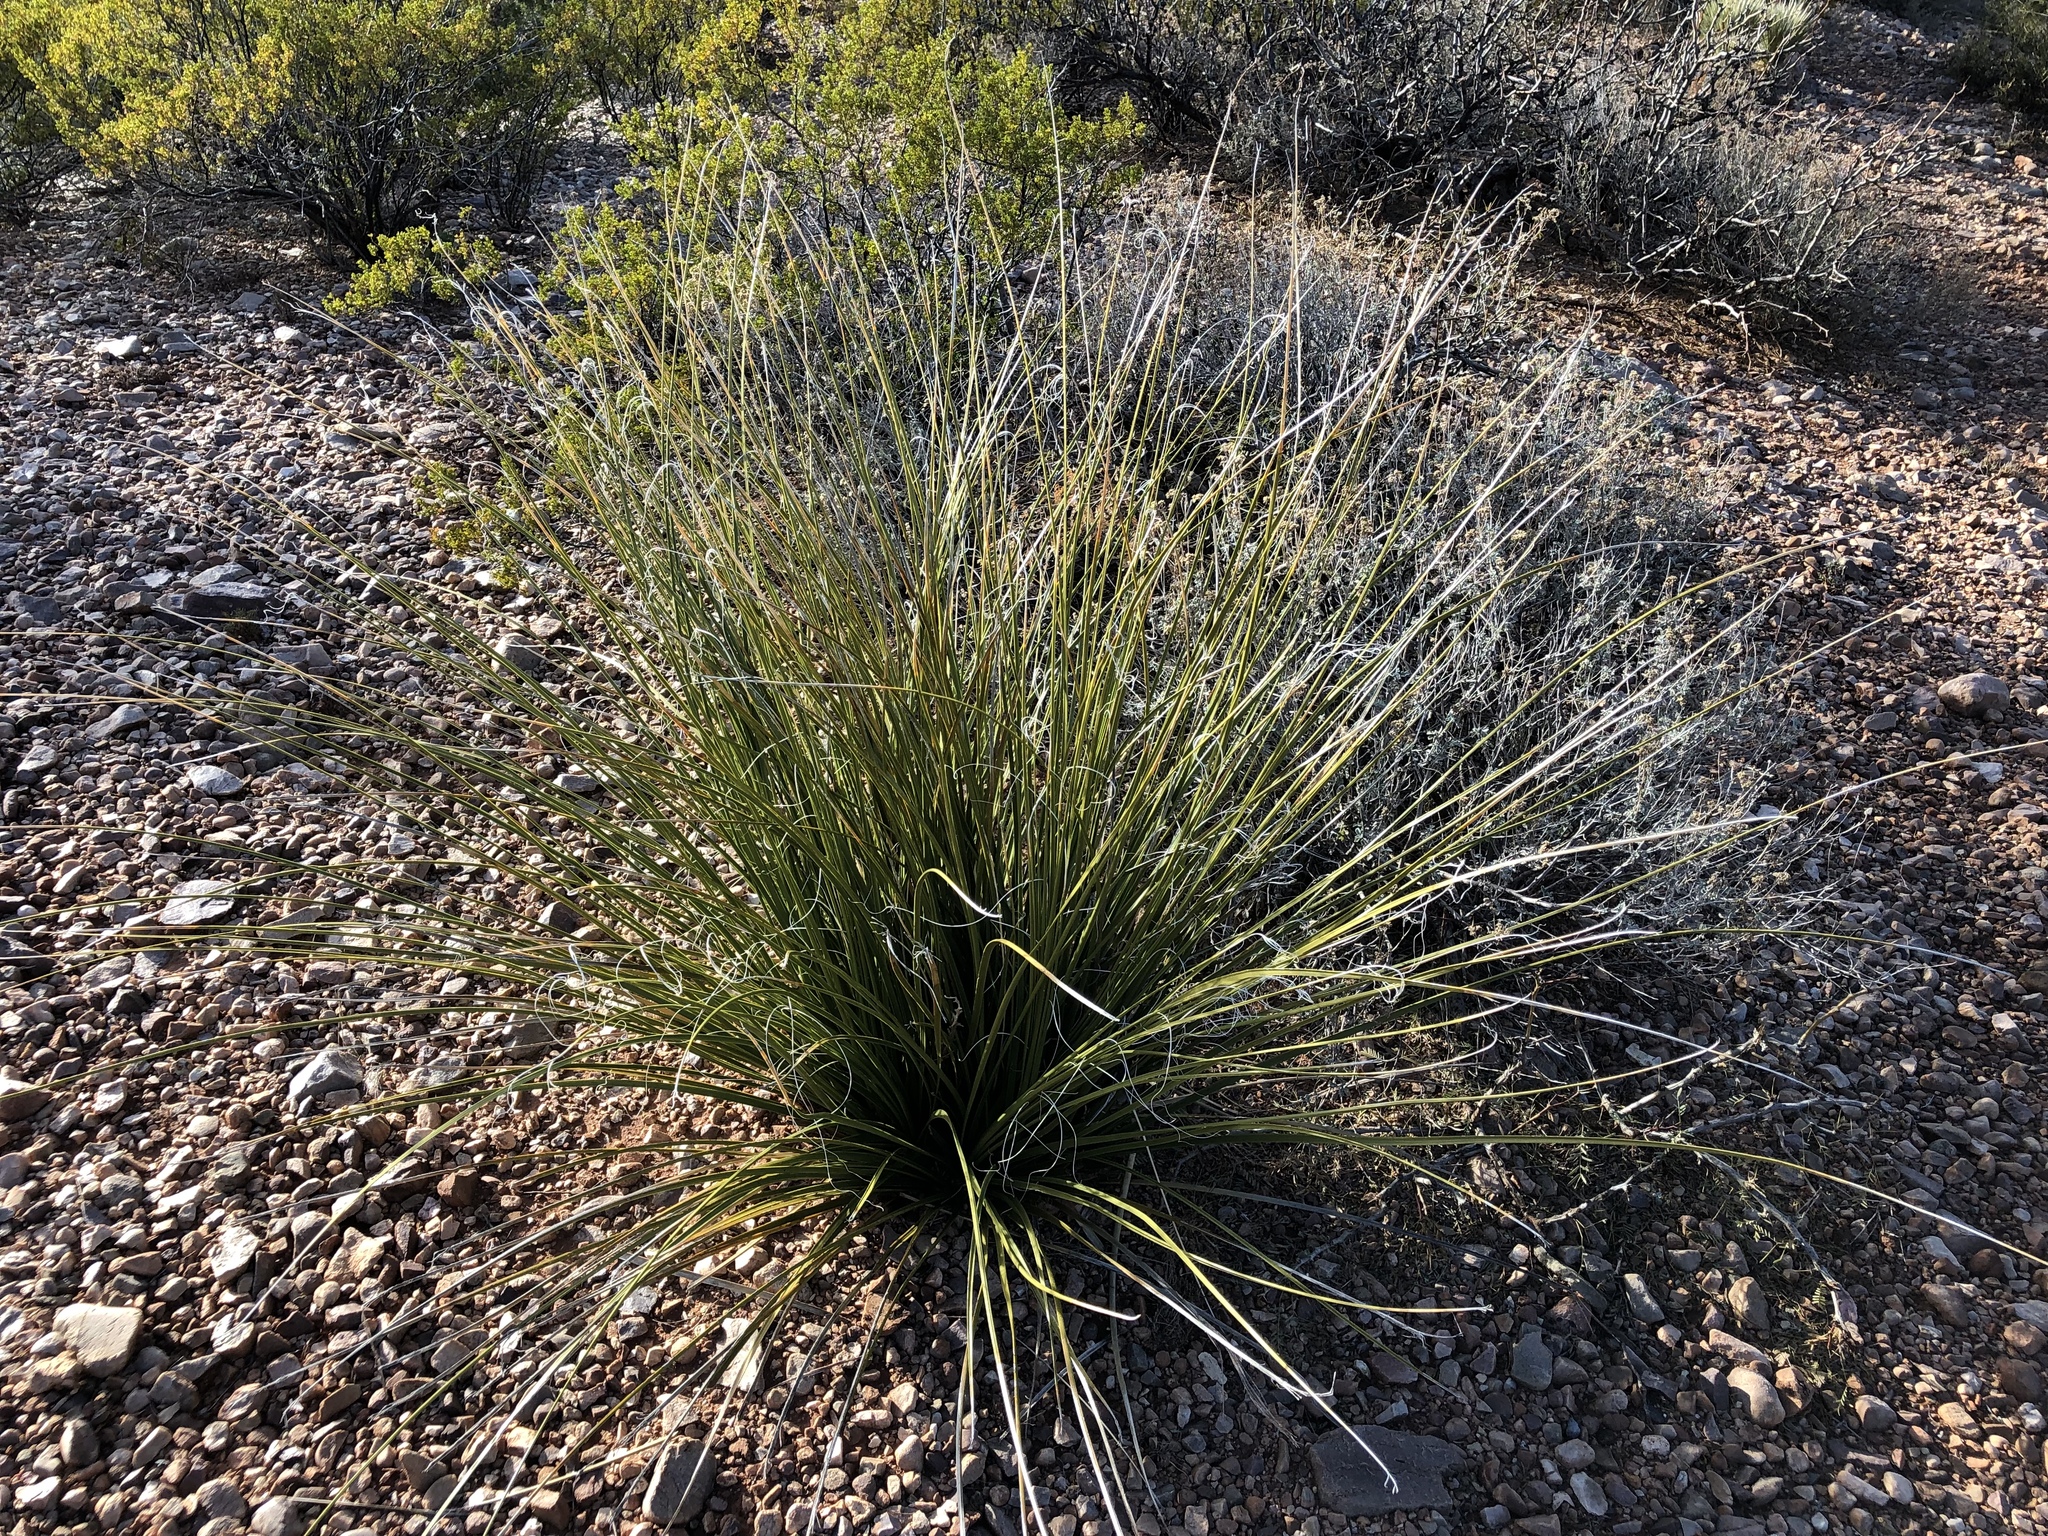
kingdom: Plantae
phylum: Tracheophyta
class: Liliopsida
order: Asparagales
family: Asparagaceae
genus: Nolina
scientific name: Nolina microcarpa
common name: Bear-grass
